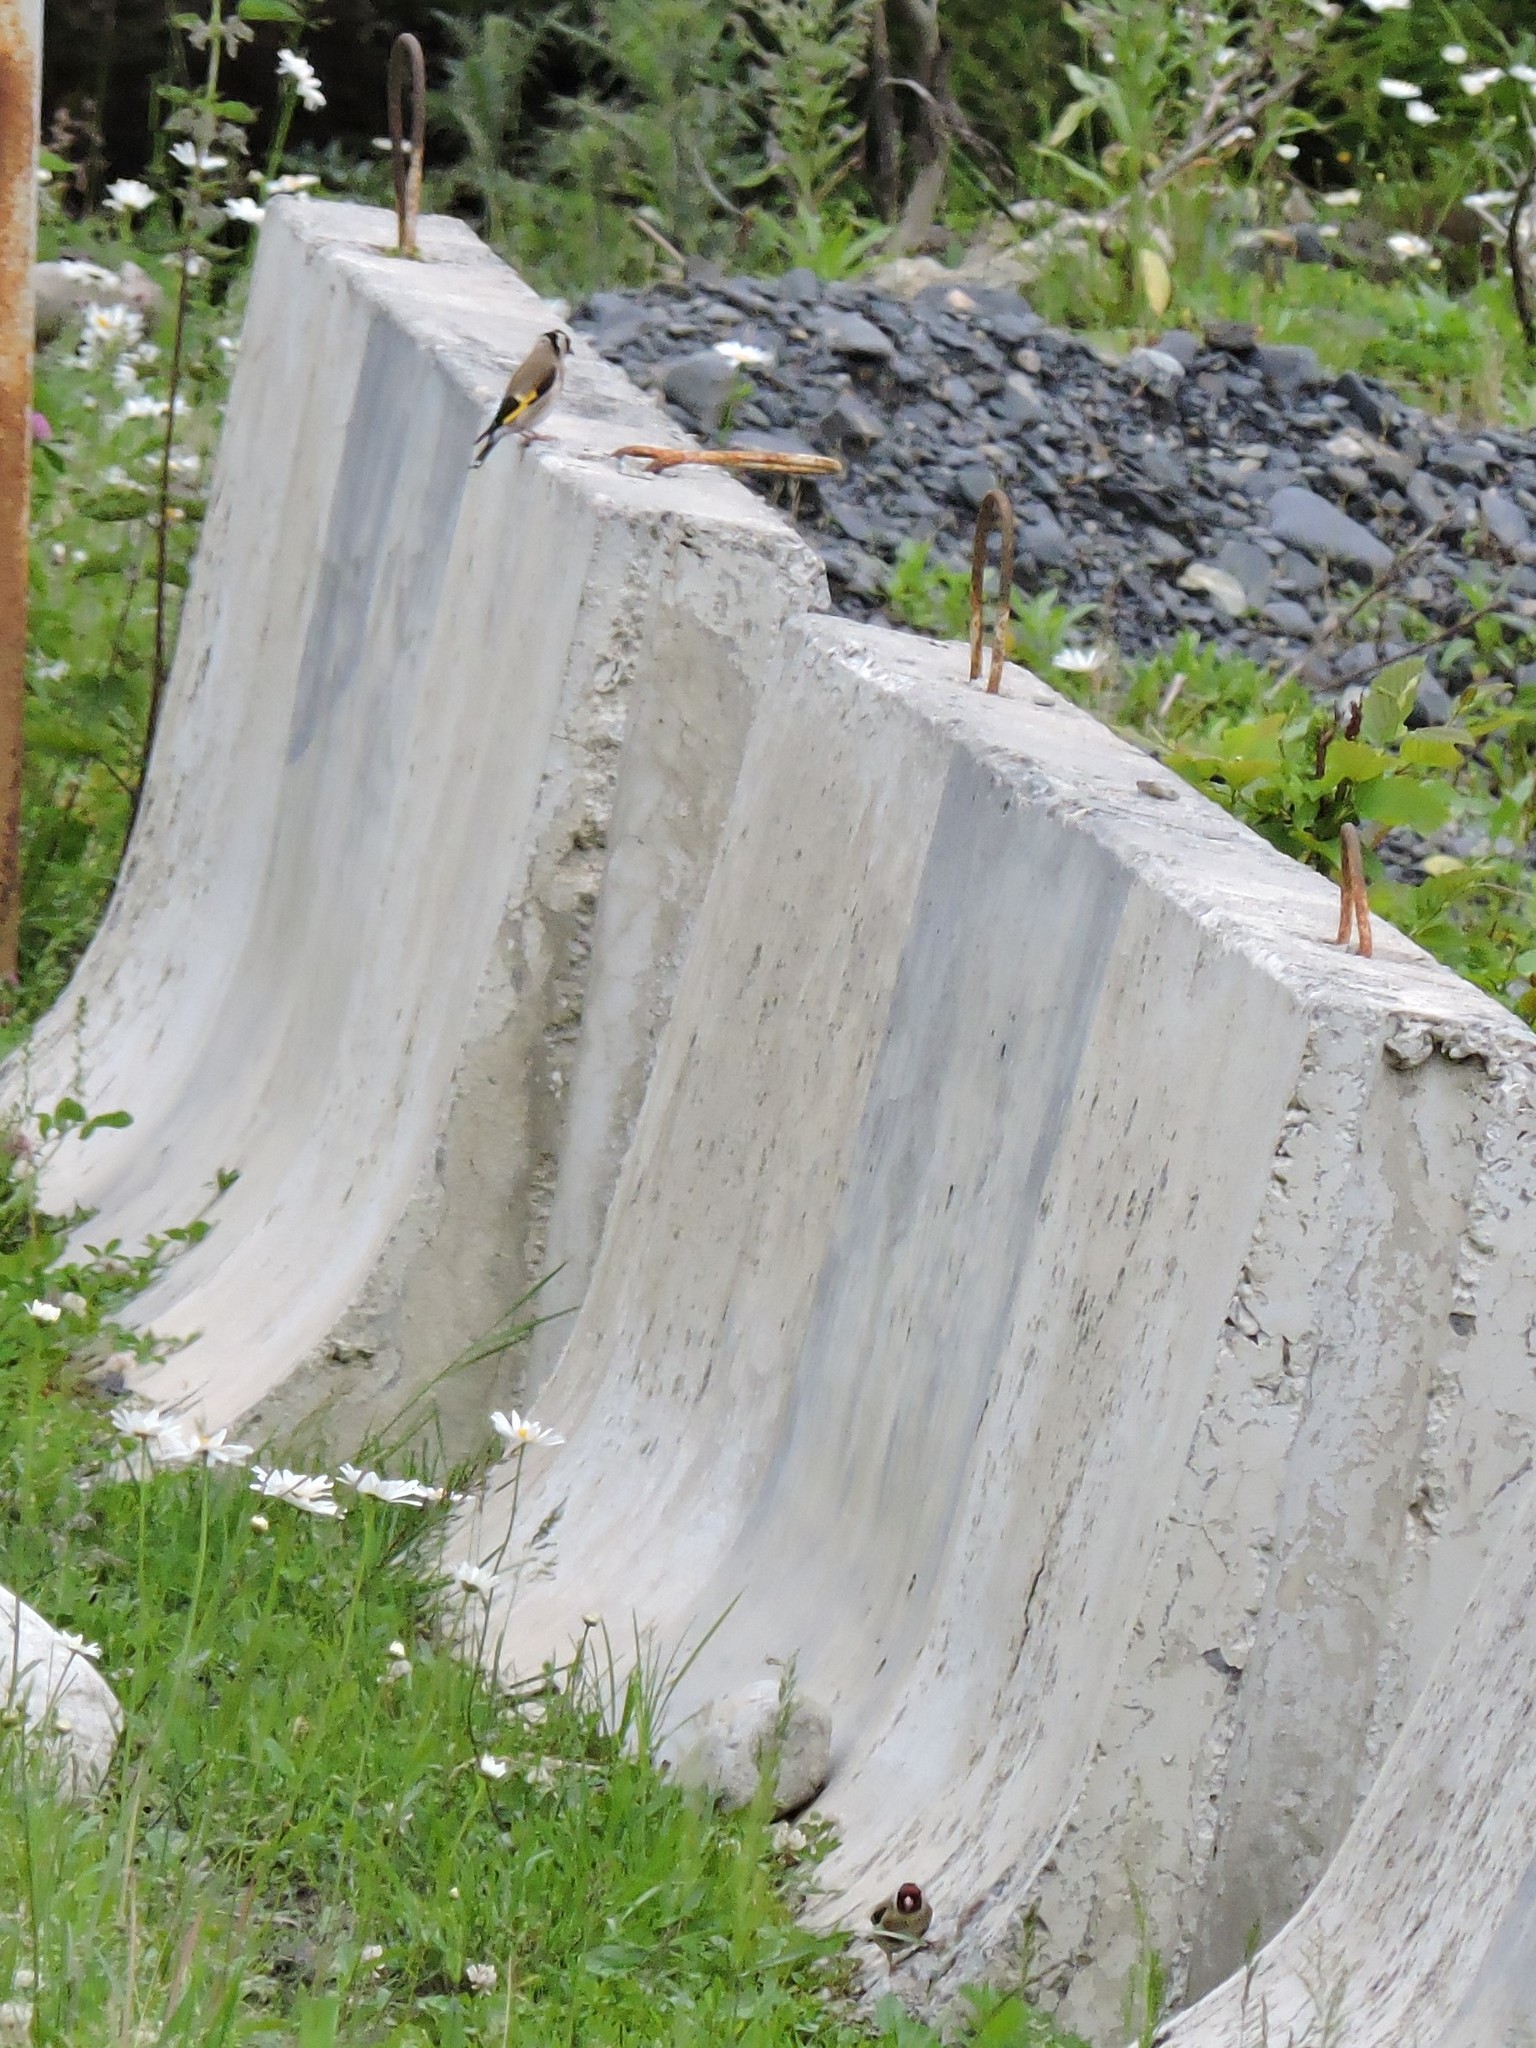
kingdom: Animalia
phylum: Chordata
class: Aves
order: Passeriformes
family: Fringillidae
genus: Carduelis
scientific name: Carduelis carduelis
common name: European goldfinch
